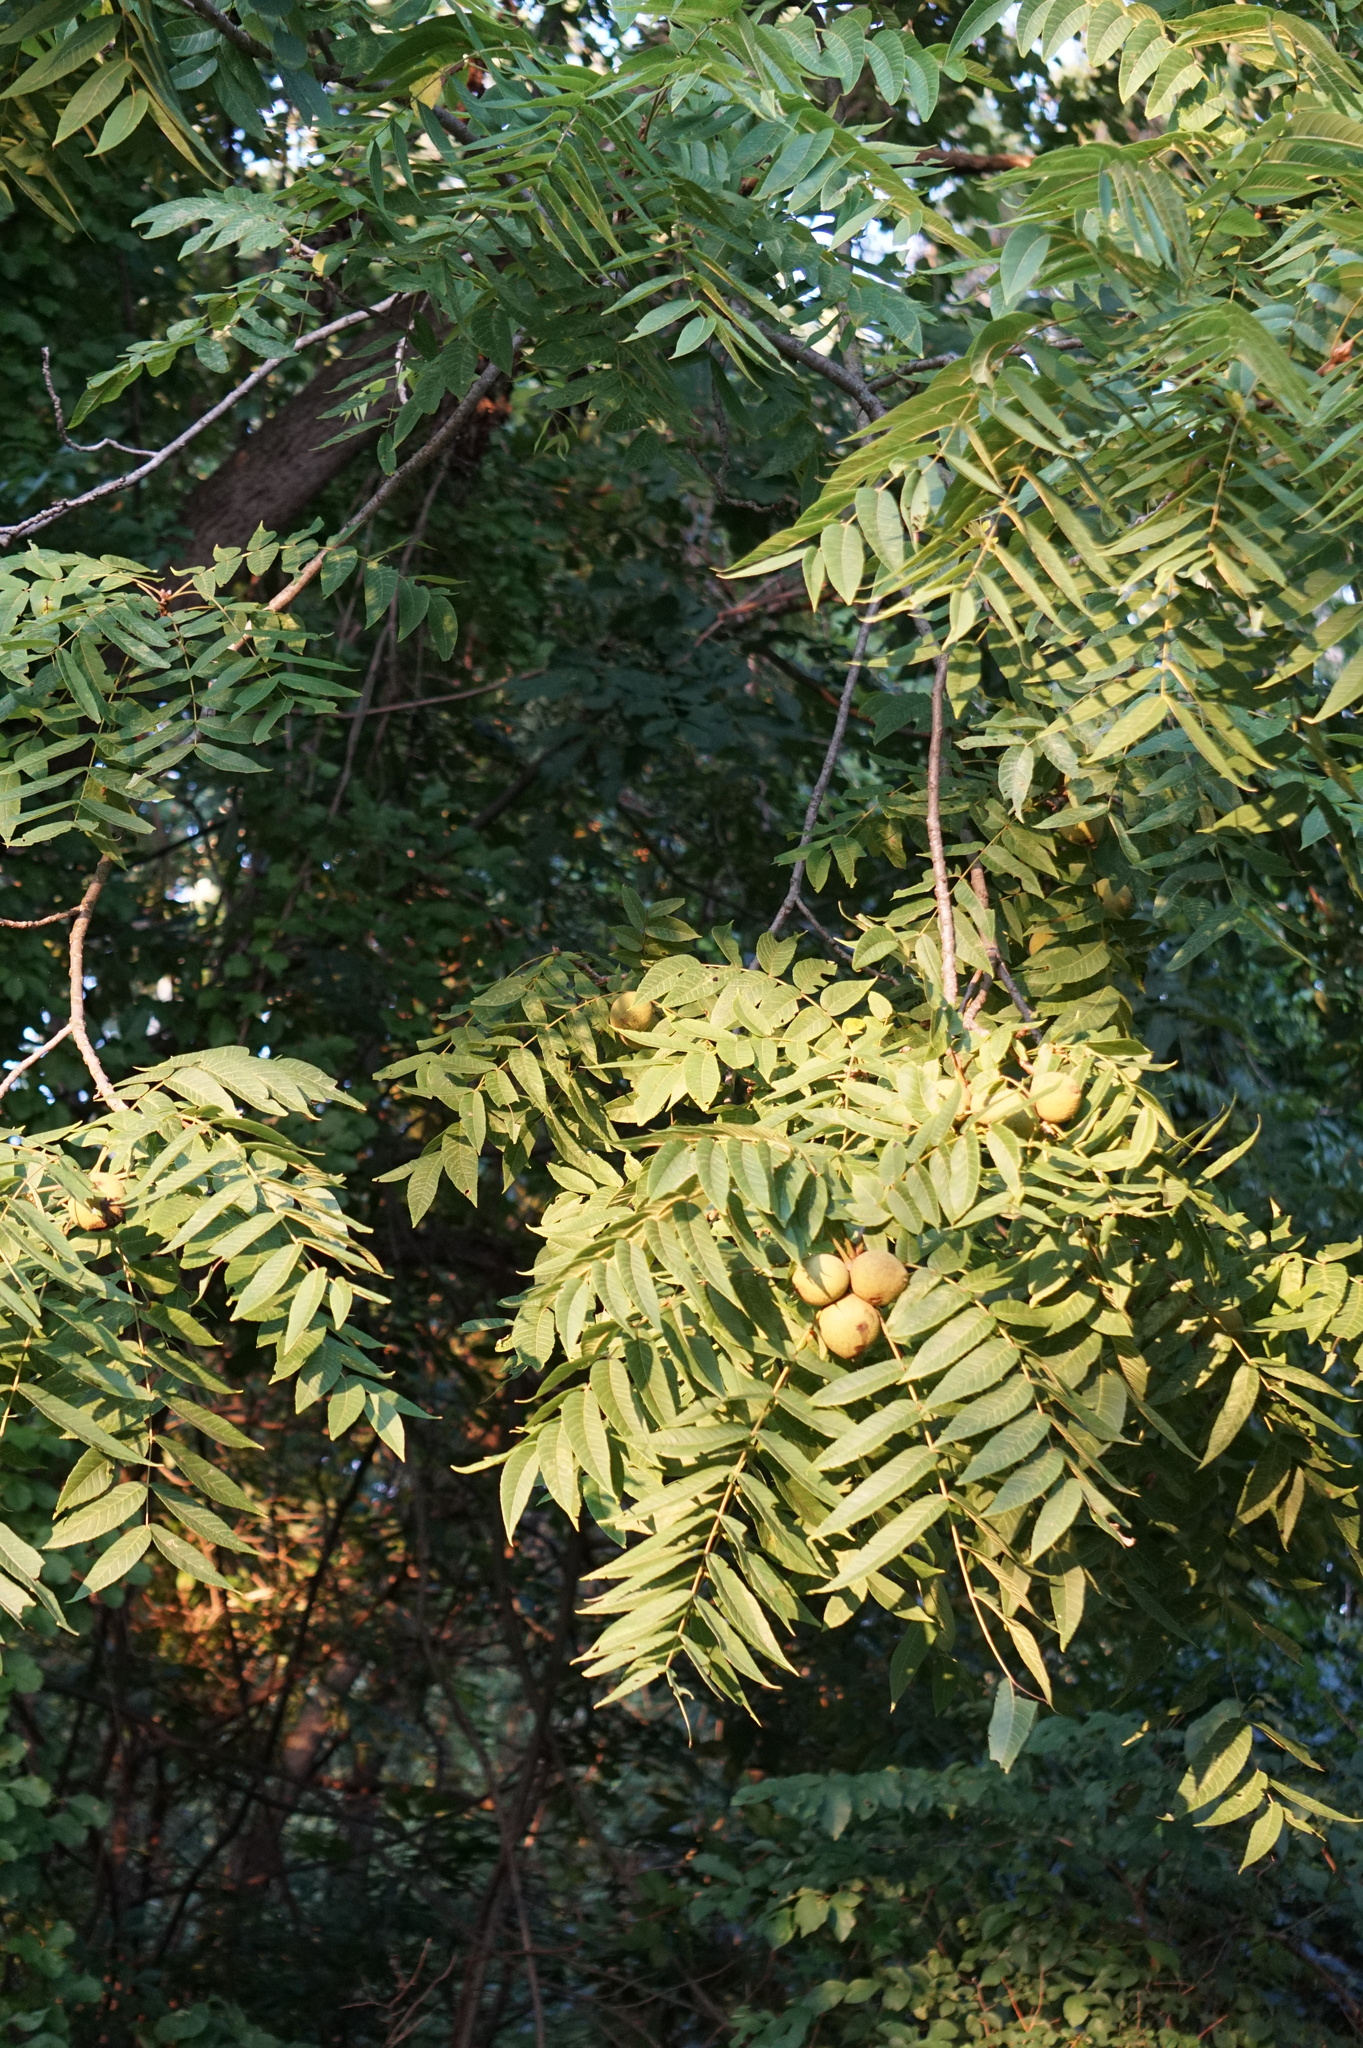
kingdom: Plantae
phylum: Tracheophyta
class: Magnoliopsida
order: Fagales
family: Juglandaceae
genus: Juglans
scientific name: Juglans nigra
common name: Black walnut
